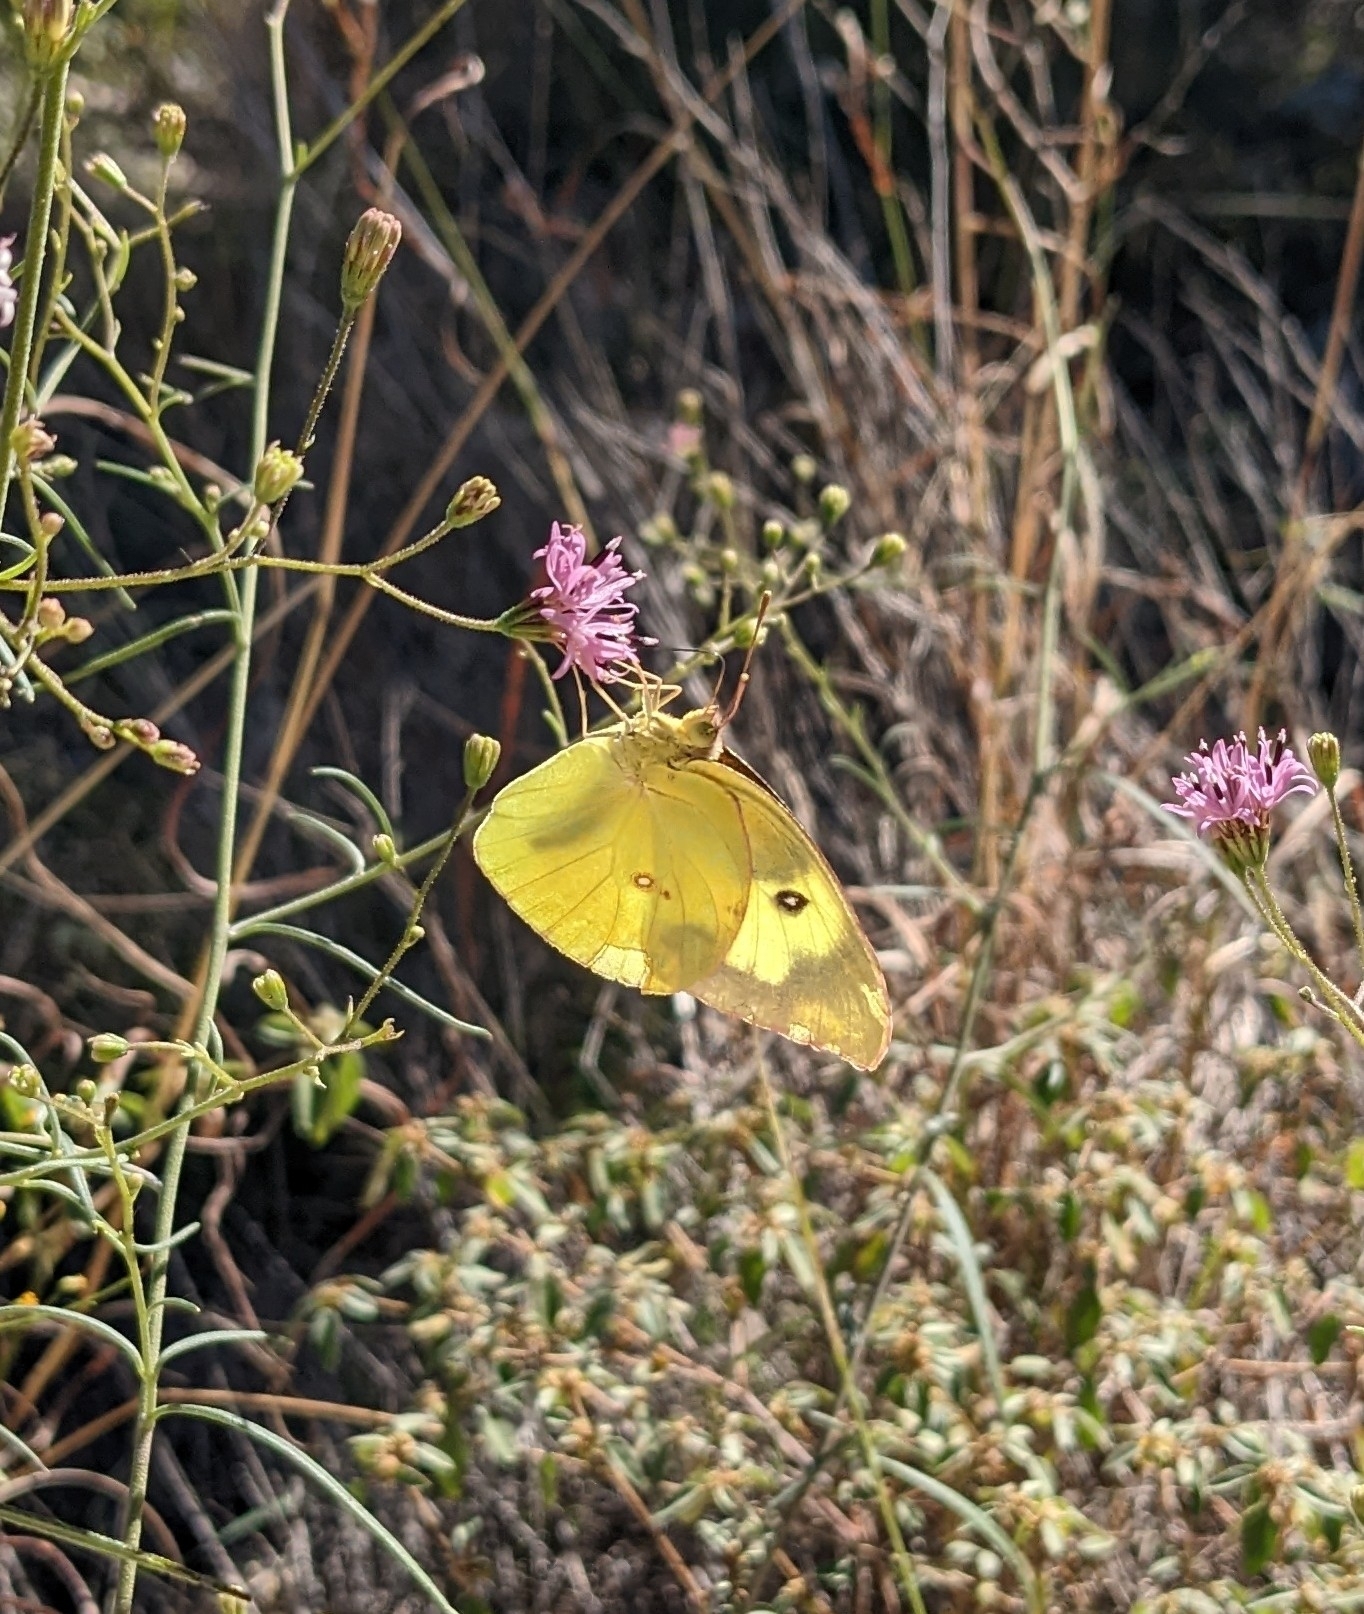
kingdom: Animalia
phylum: Arthropoda
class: Insecta
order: Lepidoptera
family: Pieridae
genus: Zerene
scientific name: Zerene cesonia
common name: Southern dogface
